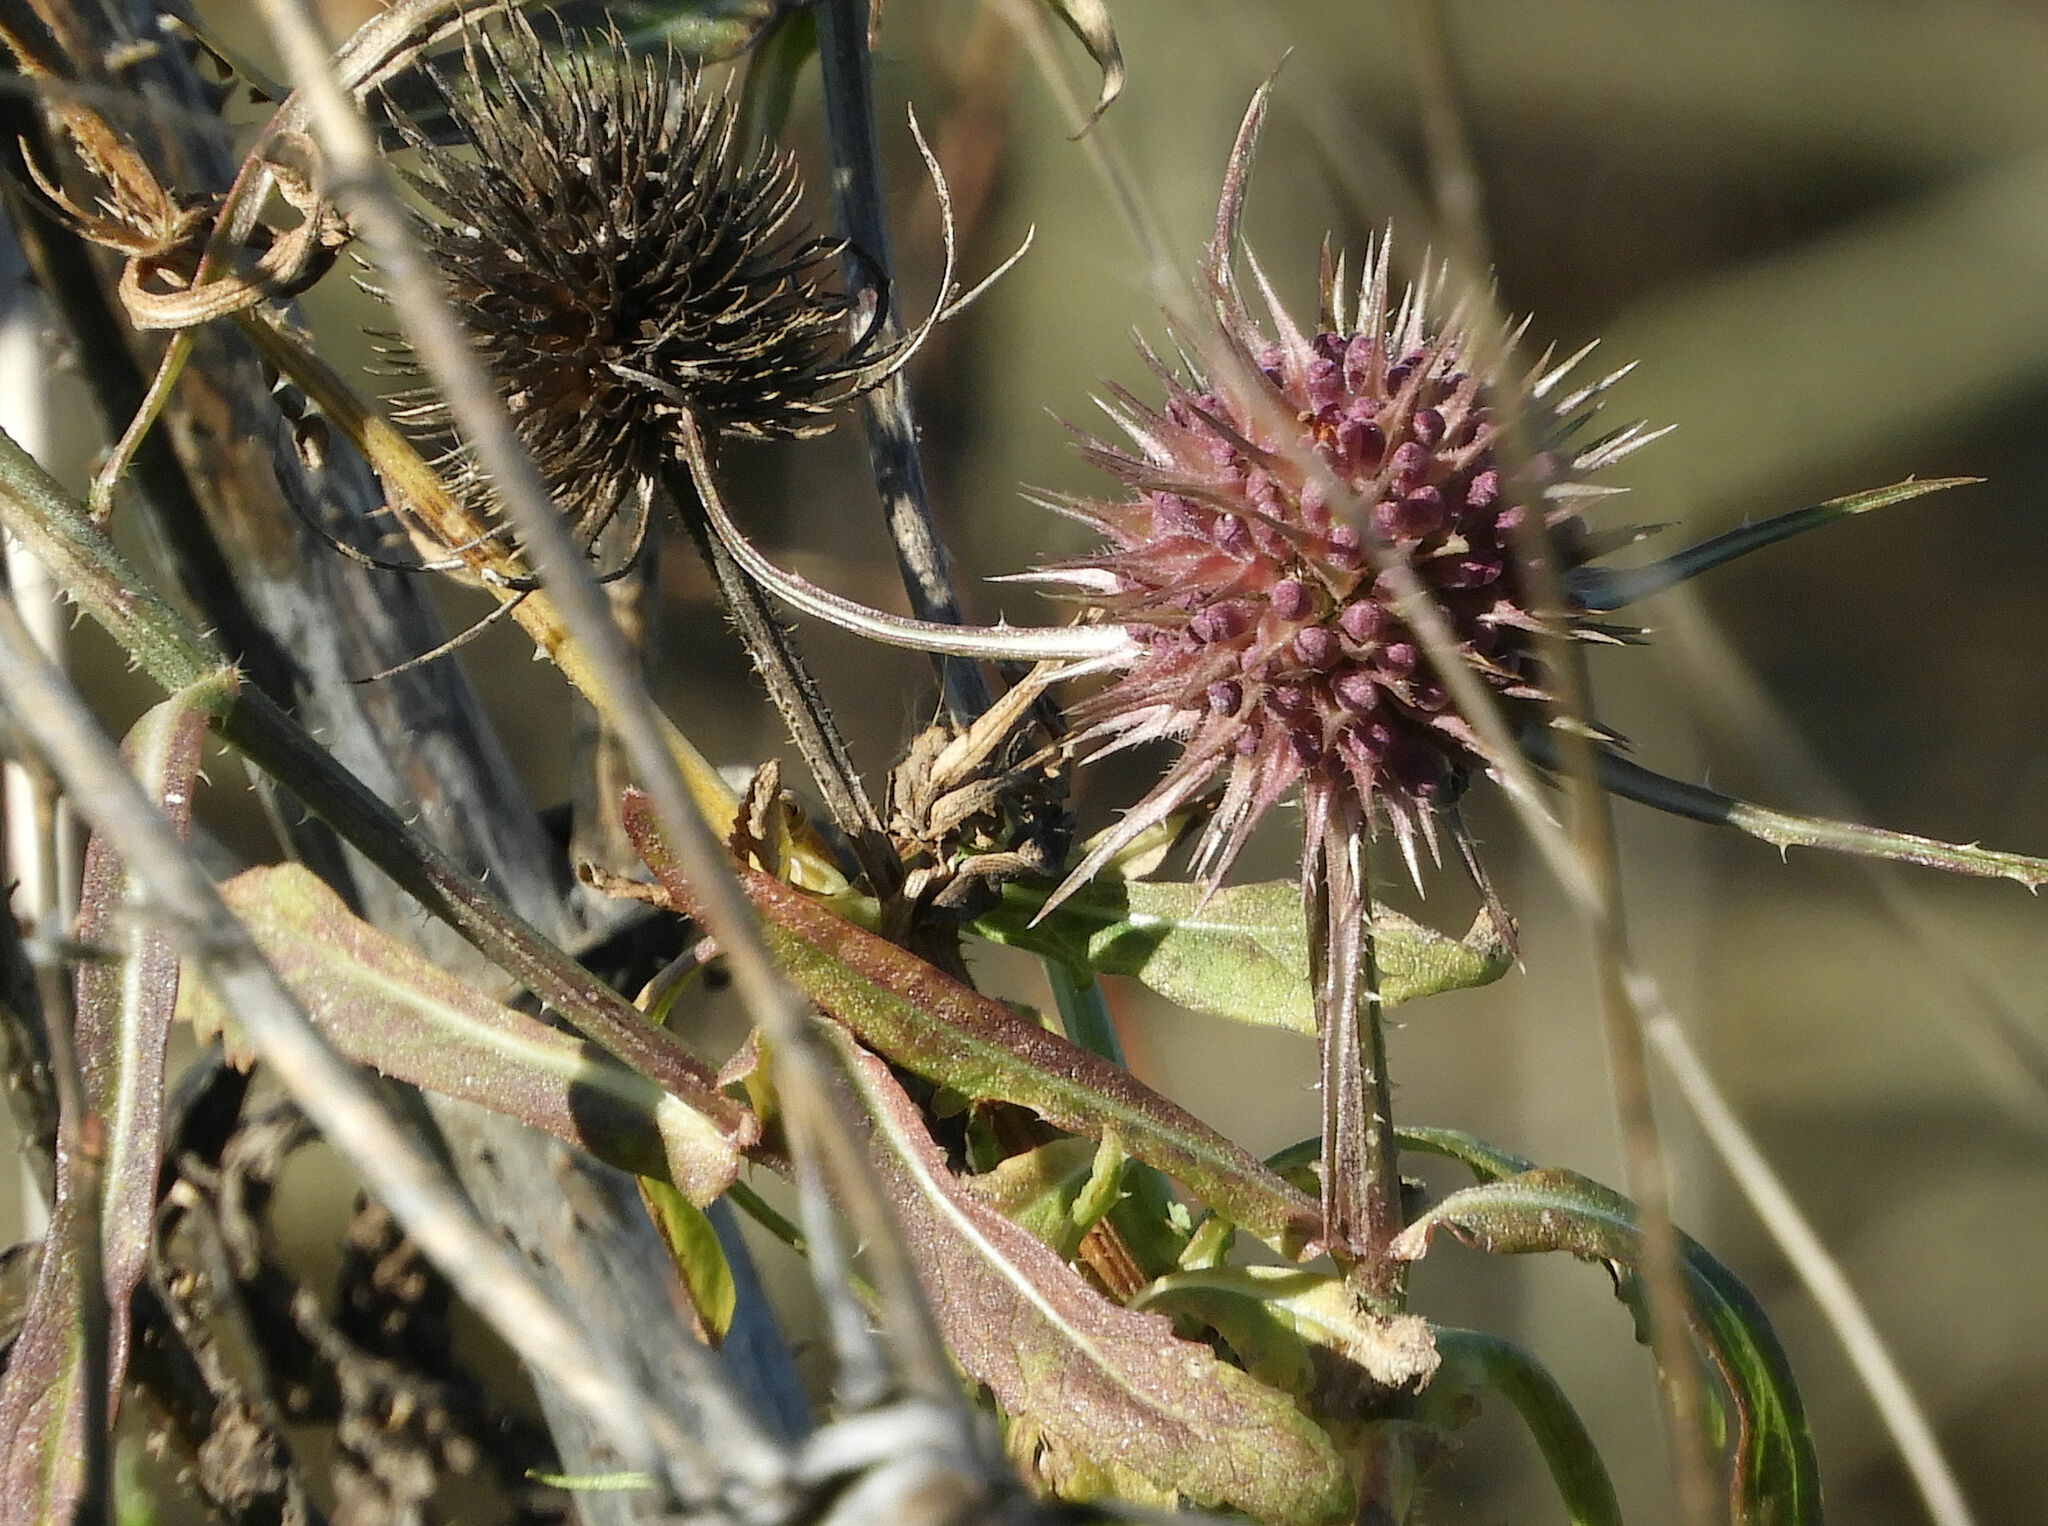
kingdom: Plantae
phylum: Tracheophyta
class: Magnoliopsida
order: Dipsacales
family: Caprifoliaceae
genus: Dipsacus
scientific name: Dipsacus fullonum
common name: Teasel
